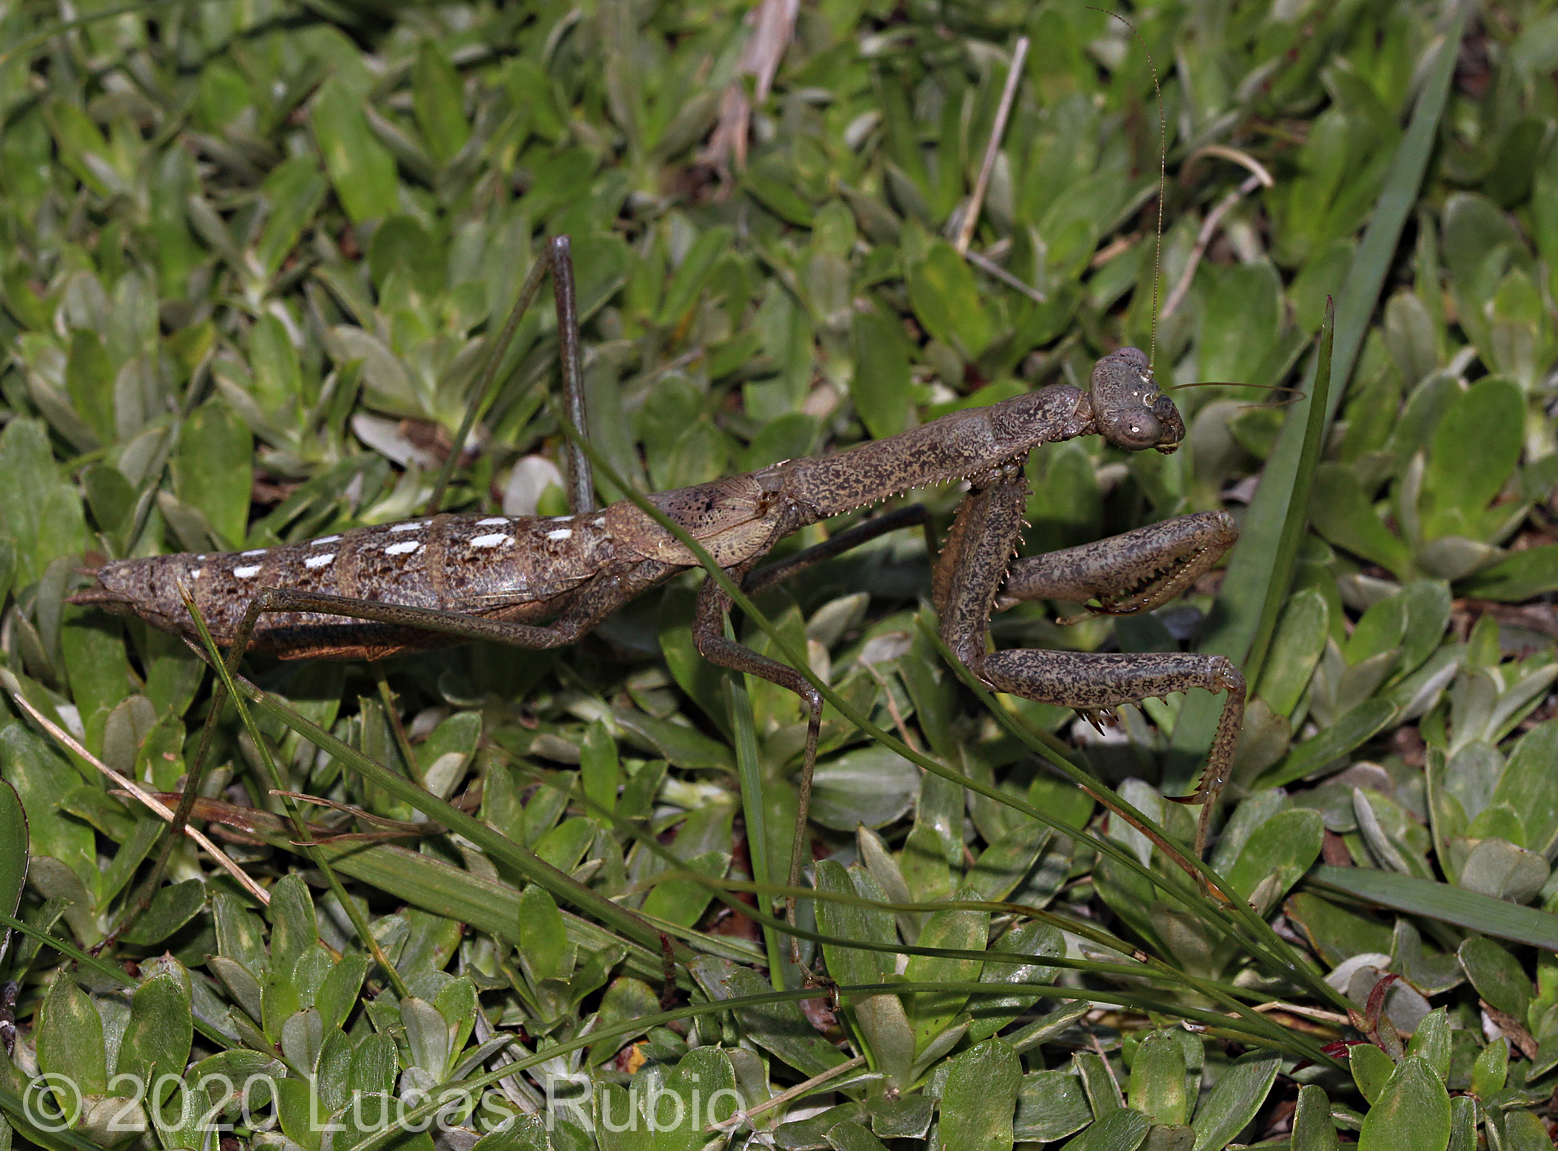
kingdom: Animalia
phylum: Arthropoda
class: Insecta
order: Mantodea
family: Coptopterygidae
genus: Coptopteryx
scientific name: Coptopteryx gayi
